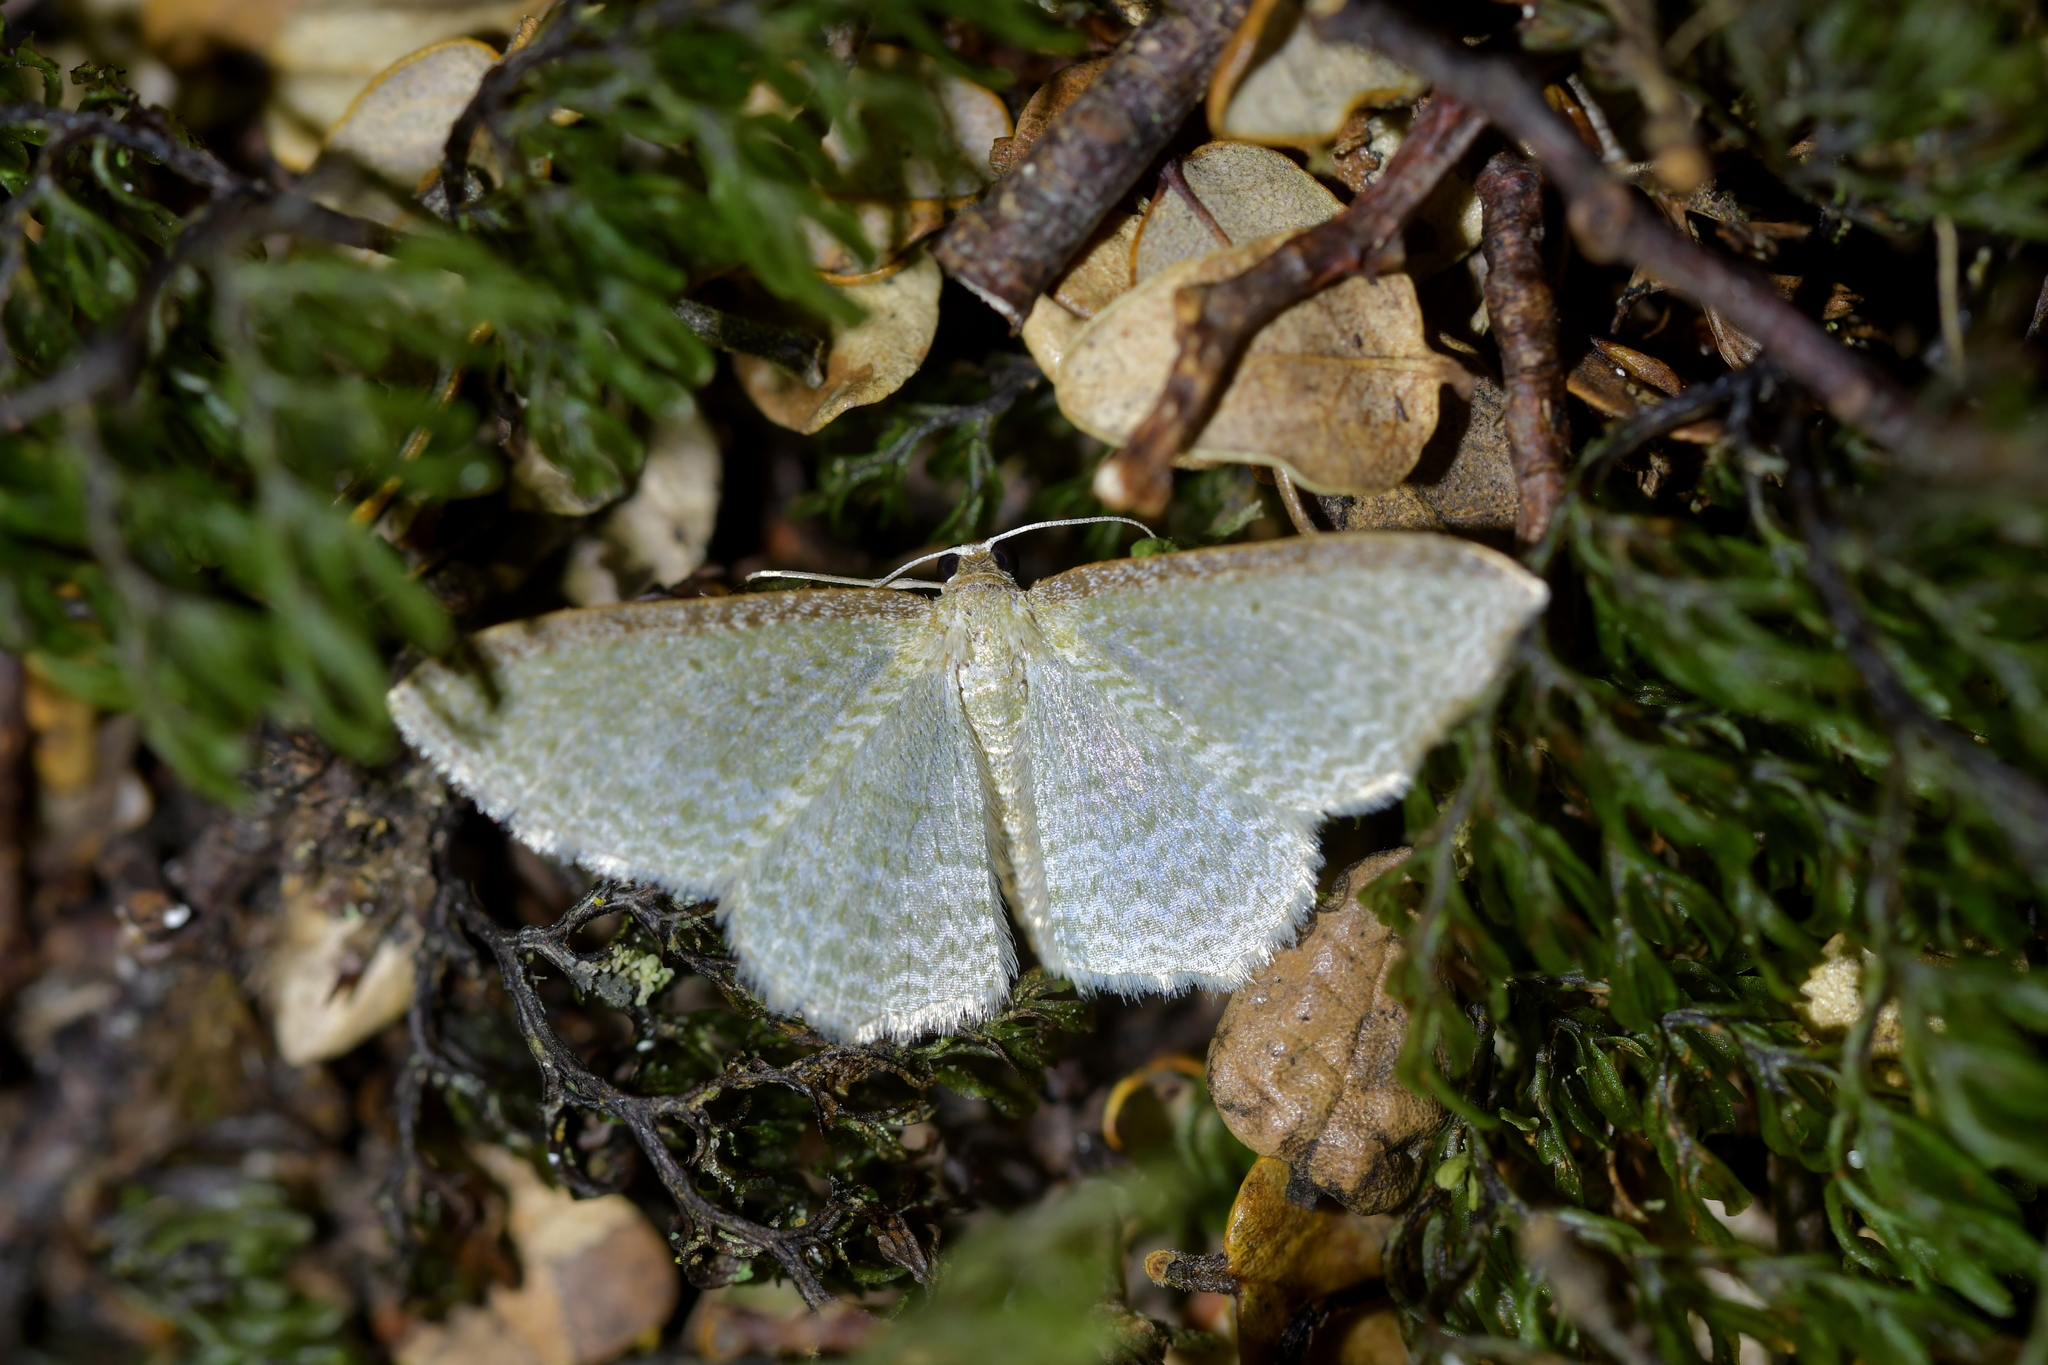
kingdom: Animalia
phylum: Arthropoda
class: Insecta
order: Lepidoptera
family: Geometridae
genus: Poecilasthena
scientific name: Poecilasthena pulchraria
